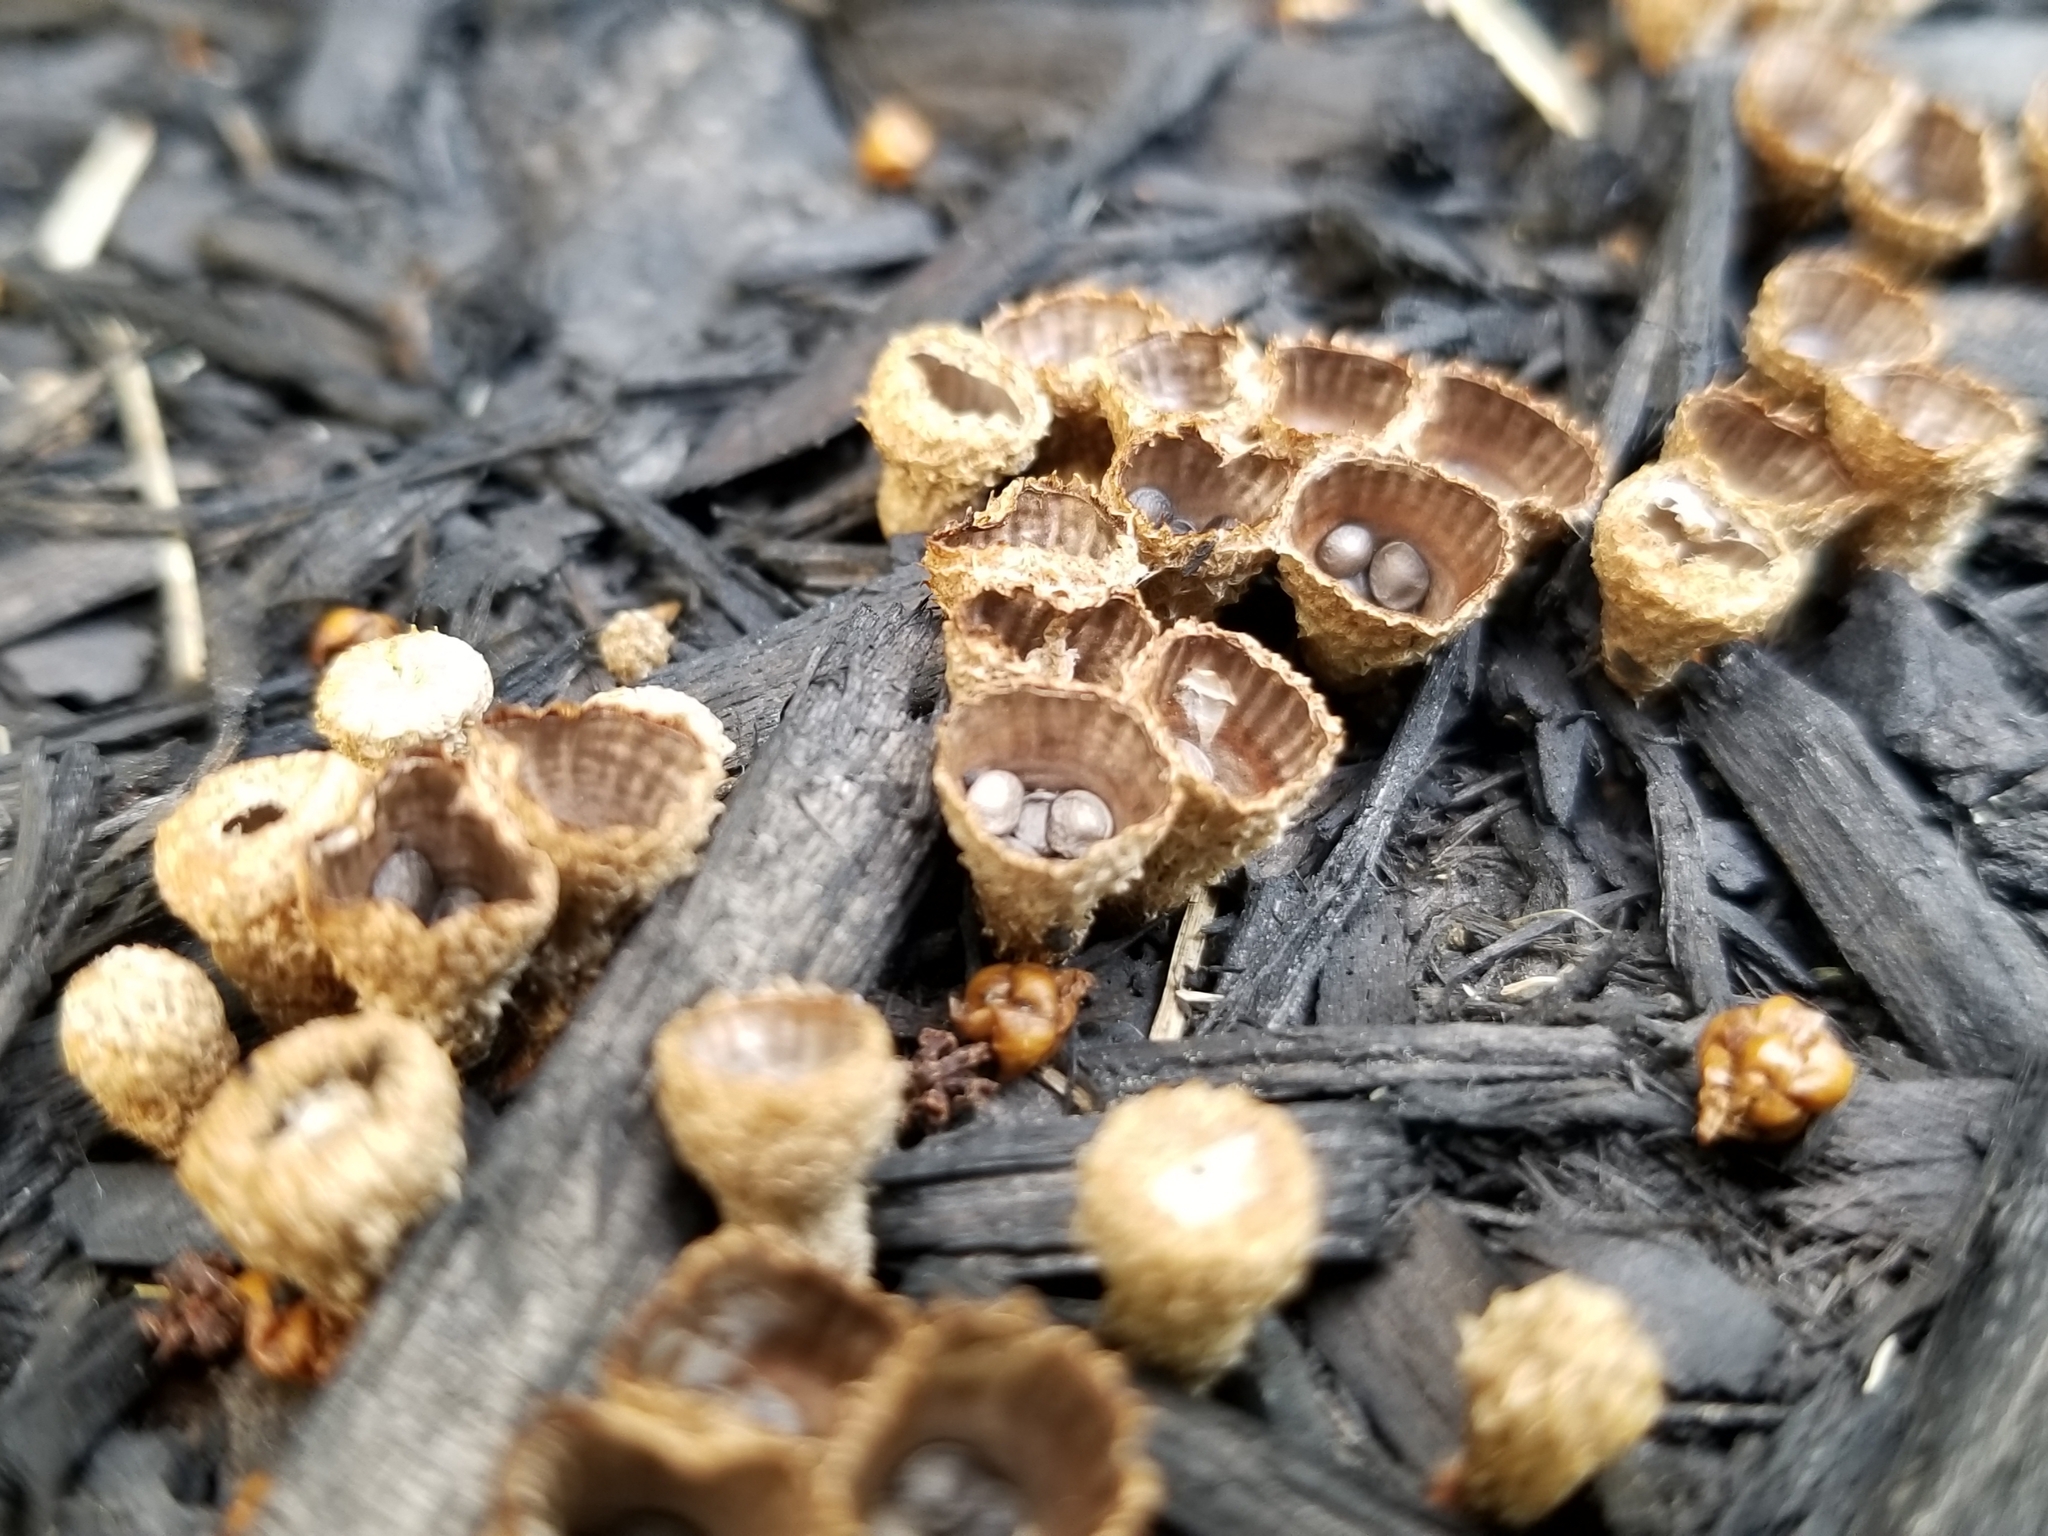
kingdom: Fungi
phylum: Basidiomycota
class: Agaricomycetes
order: Agaricales
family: Agaricaceae
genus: Cyathus
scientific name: Cyathus striatus
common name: Fluted bird's nest
